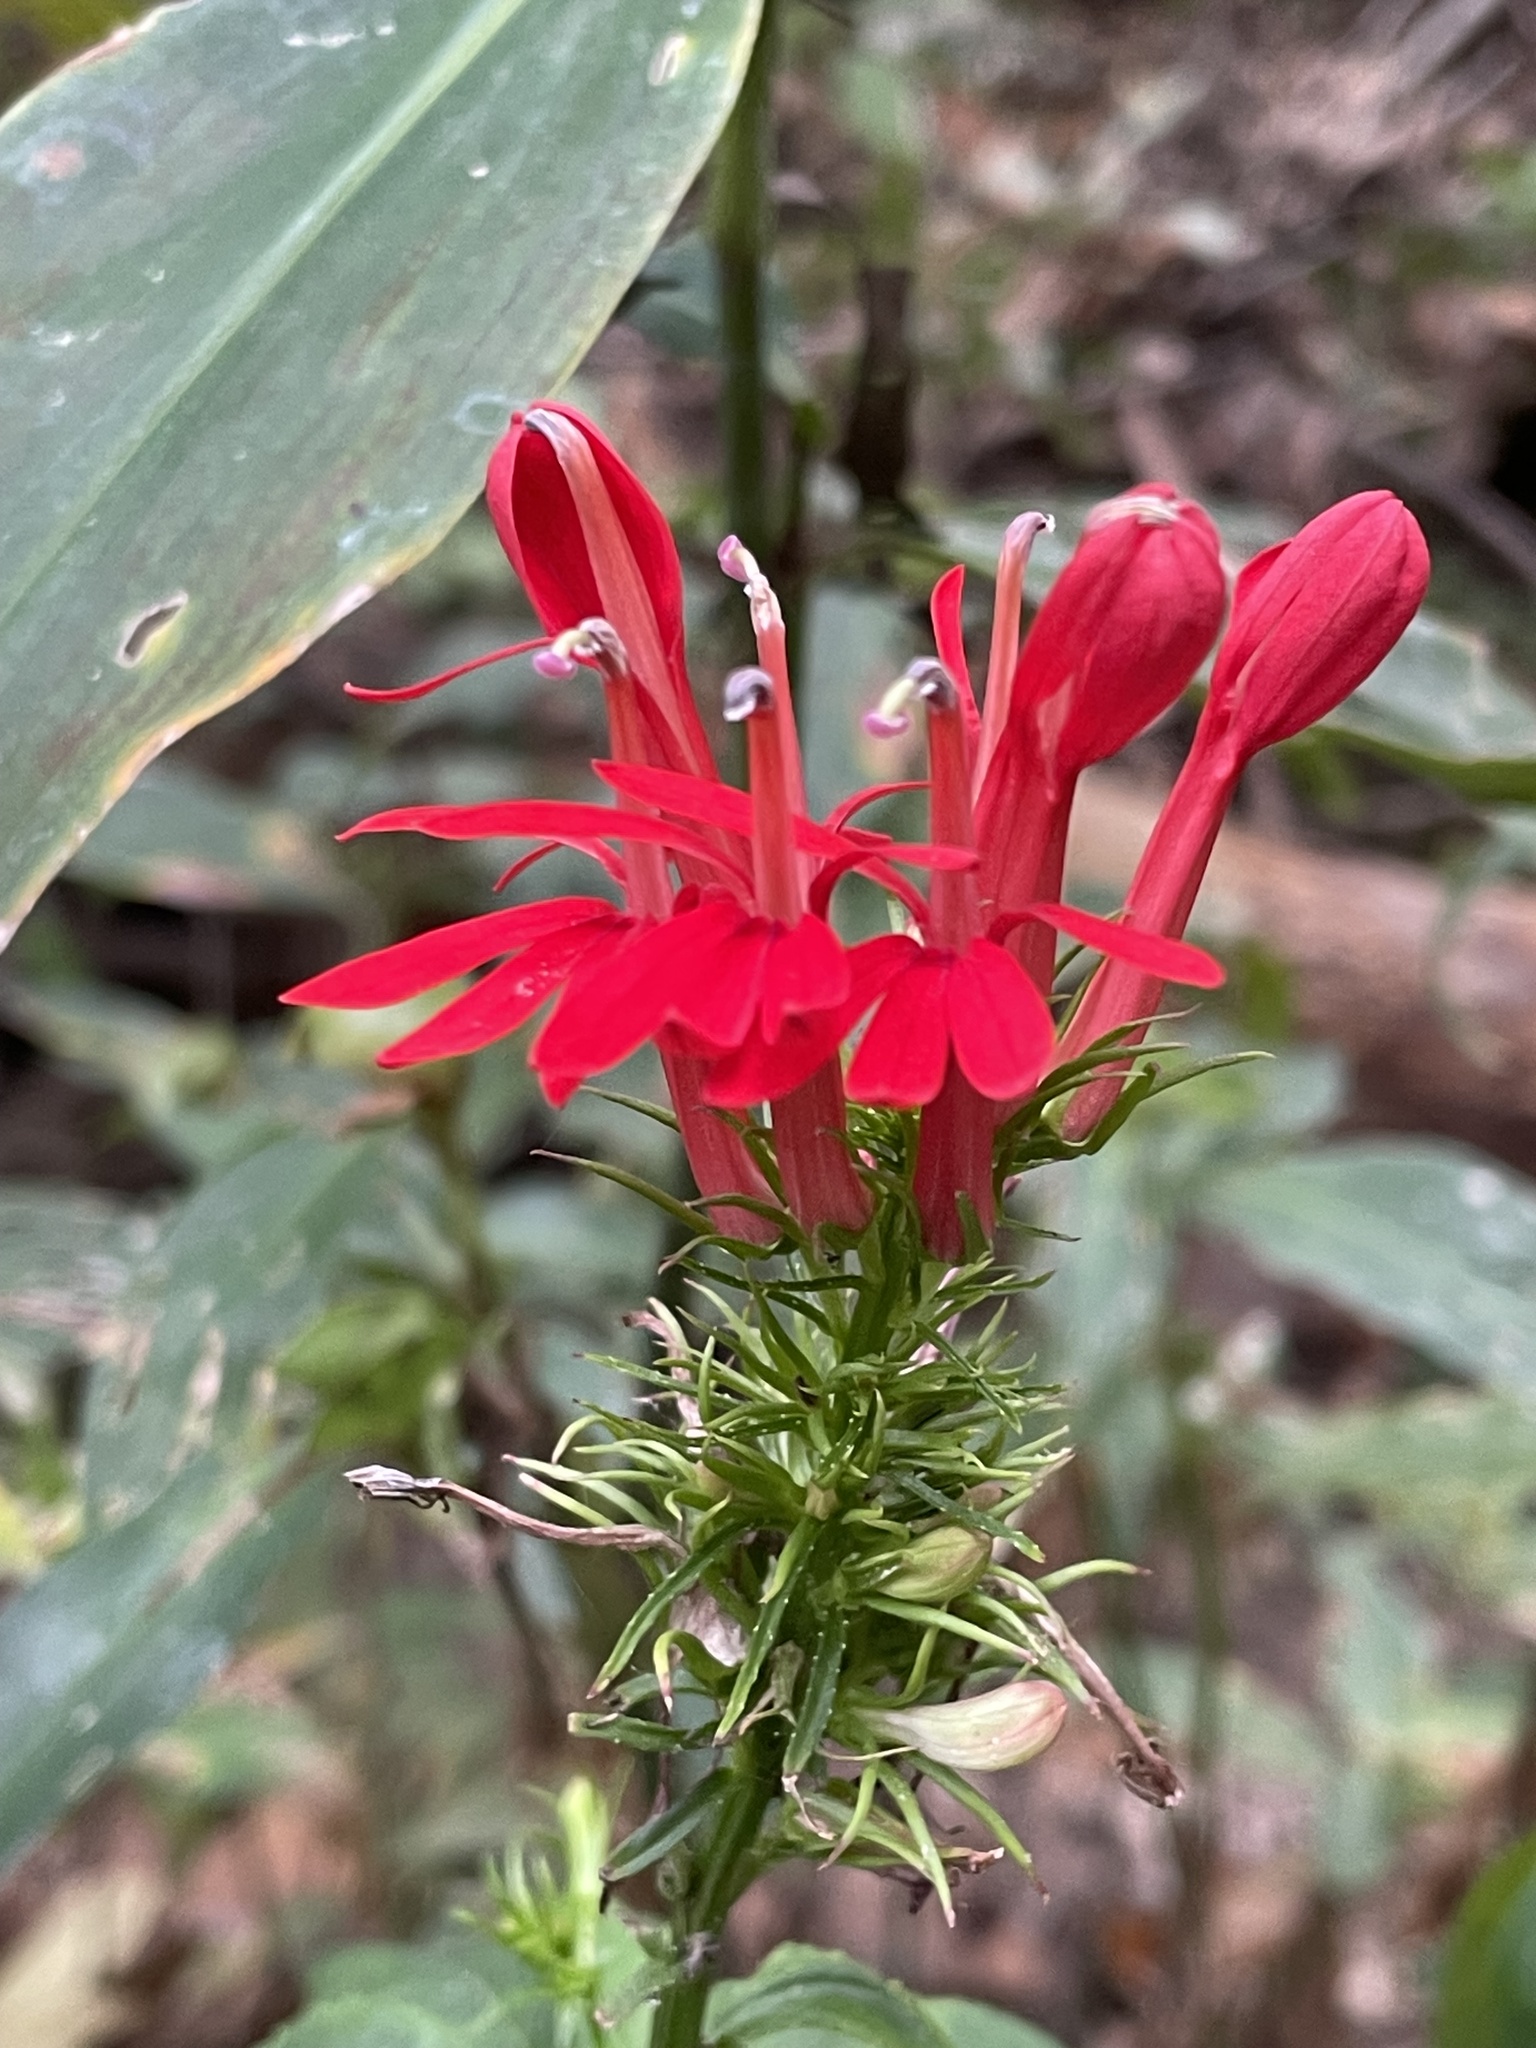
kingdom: Plantae
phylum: Tracheophyta
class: Magnoliopsida
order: Asterales
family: Campanulaceae
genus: Lobelia
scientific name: Lobelia cardinalis
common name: Cardinal flower
